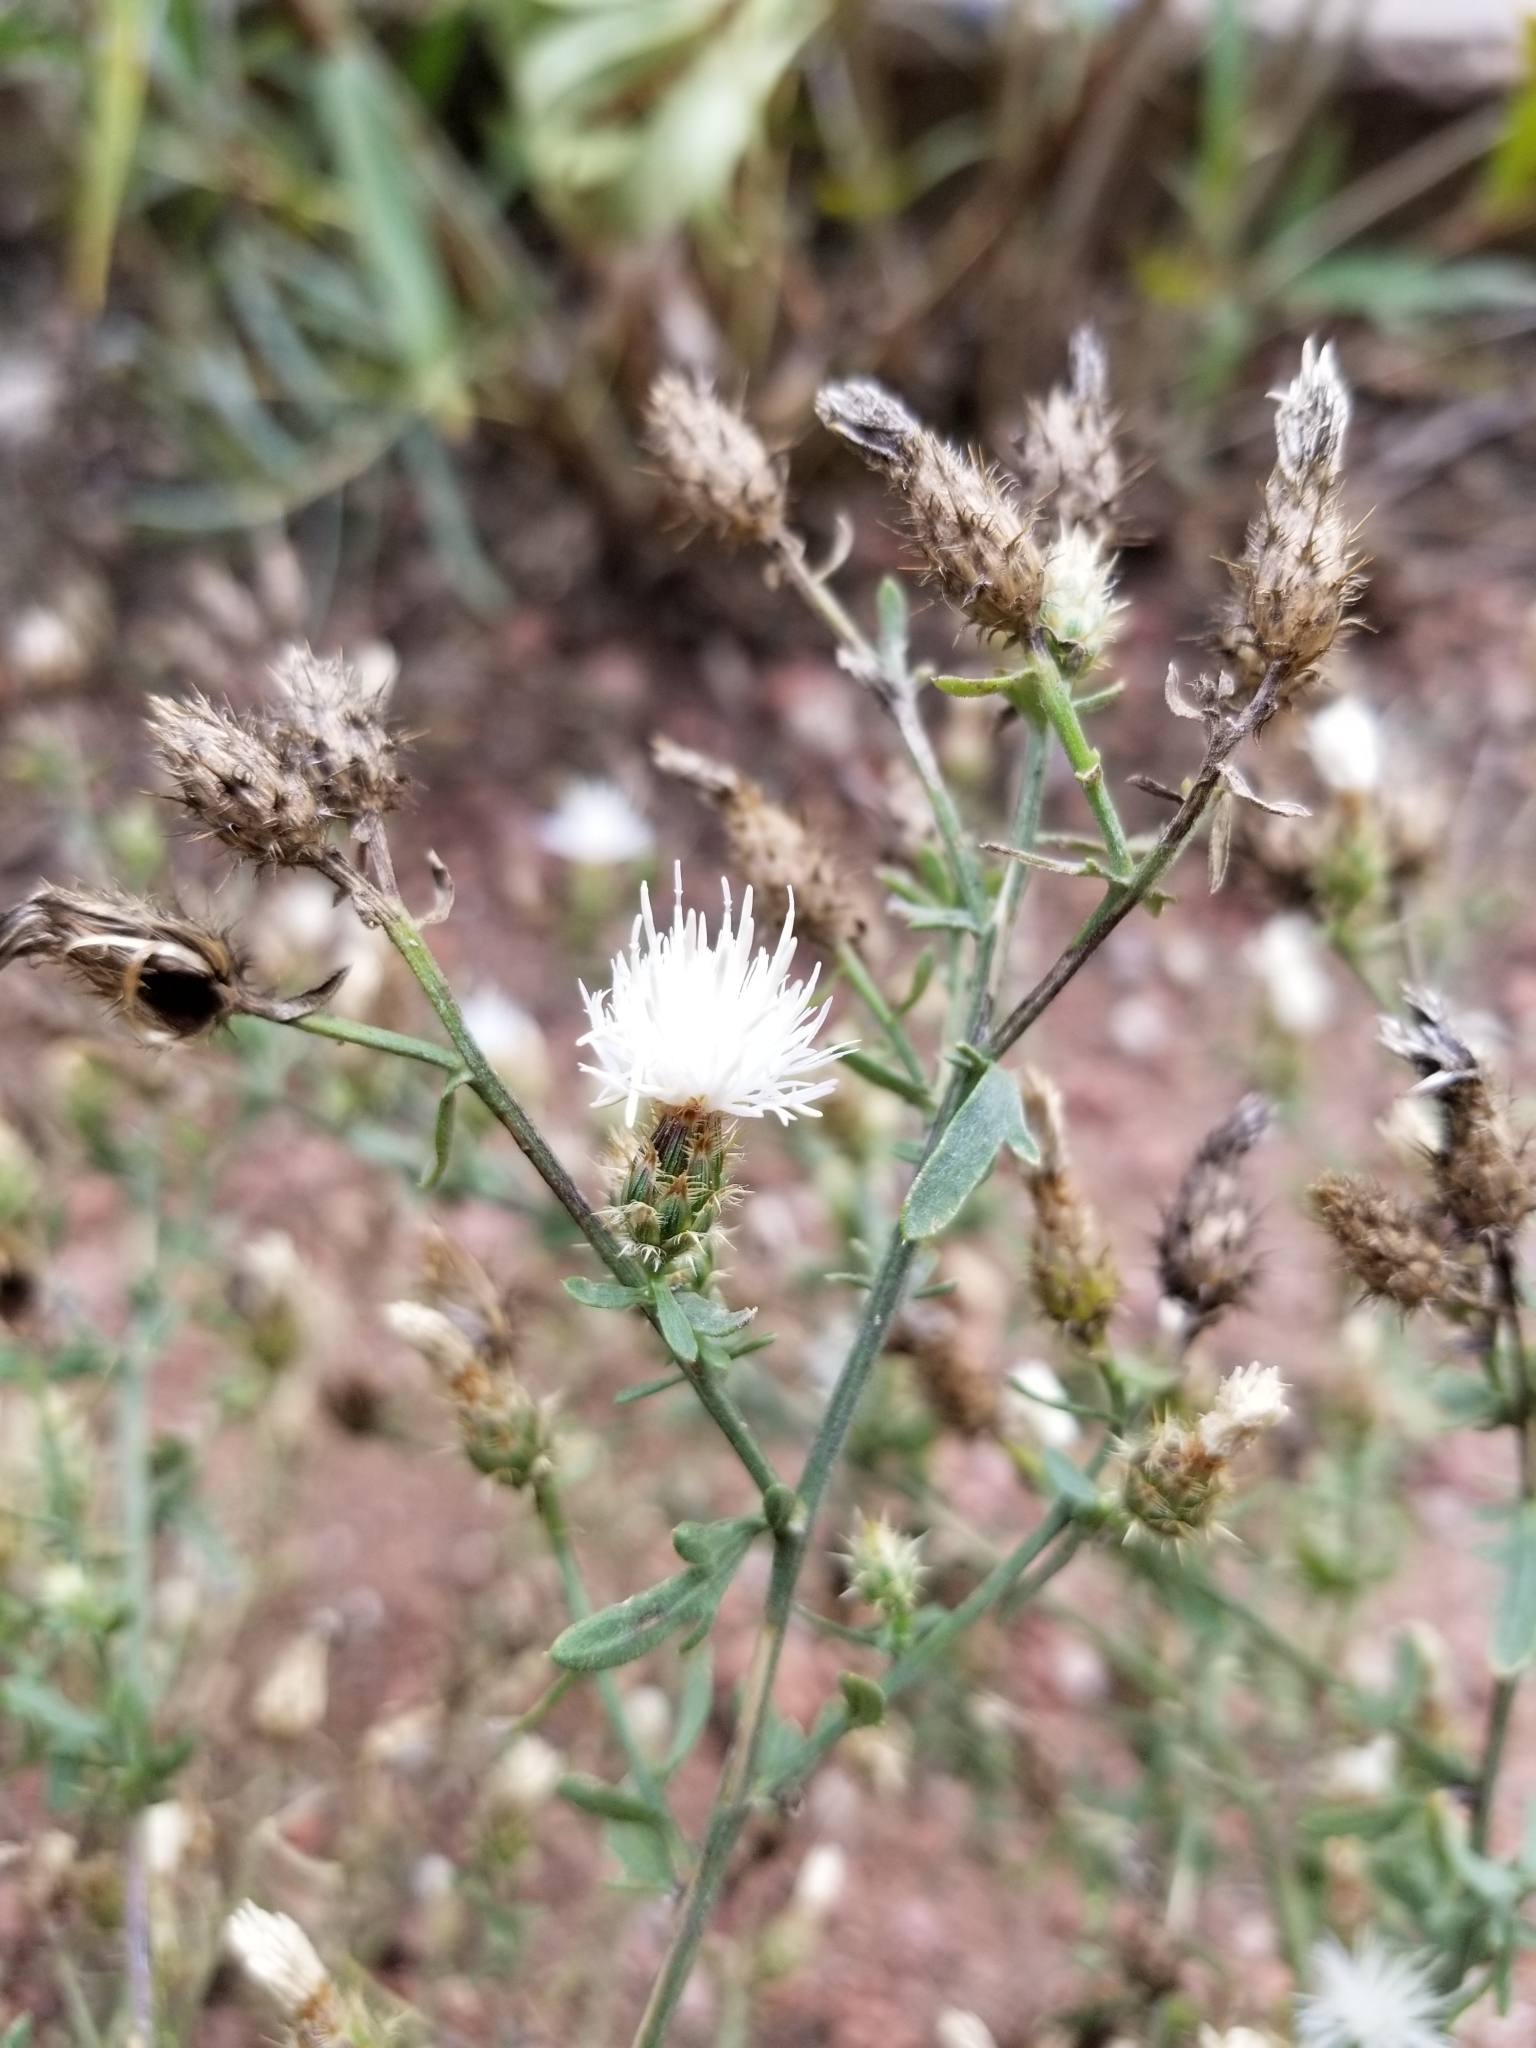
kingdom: Plantae
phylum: Tracheophyta
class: Magnoliopsida
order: Asterales
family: Asteraceae
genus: Centaurea
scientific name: Centaurea diffusa
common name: Diffuse knapweed
